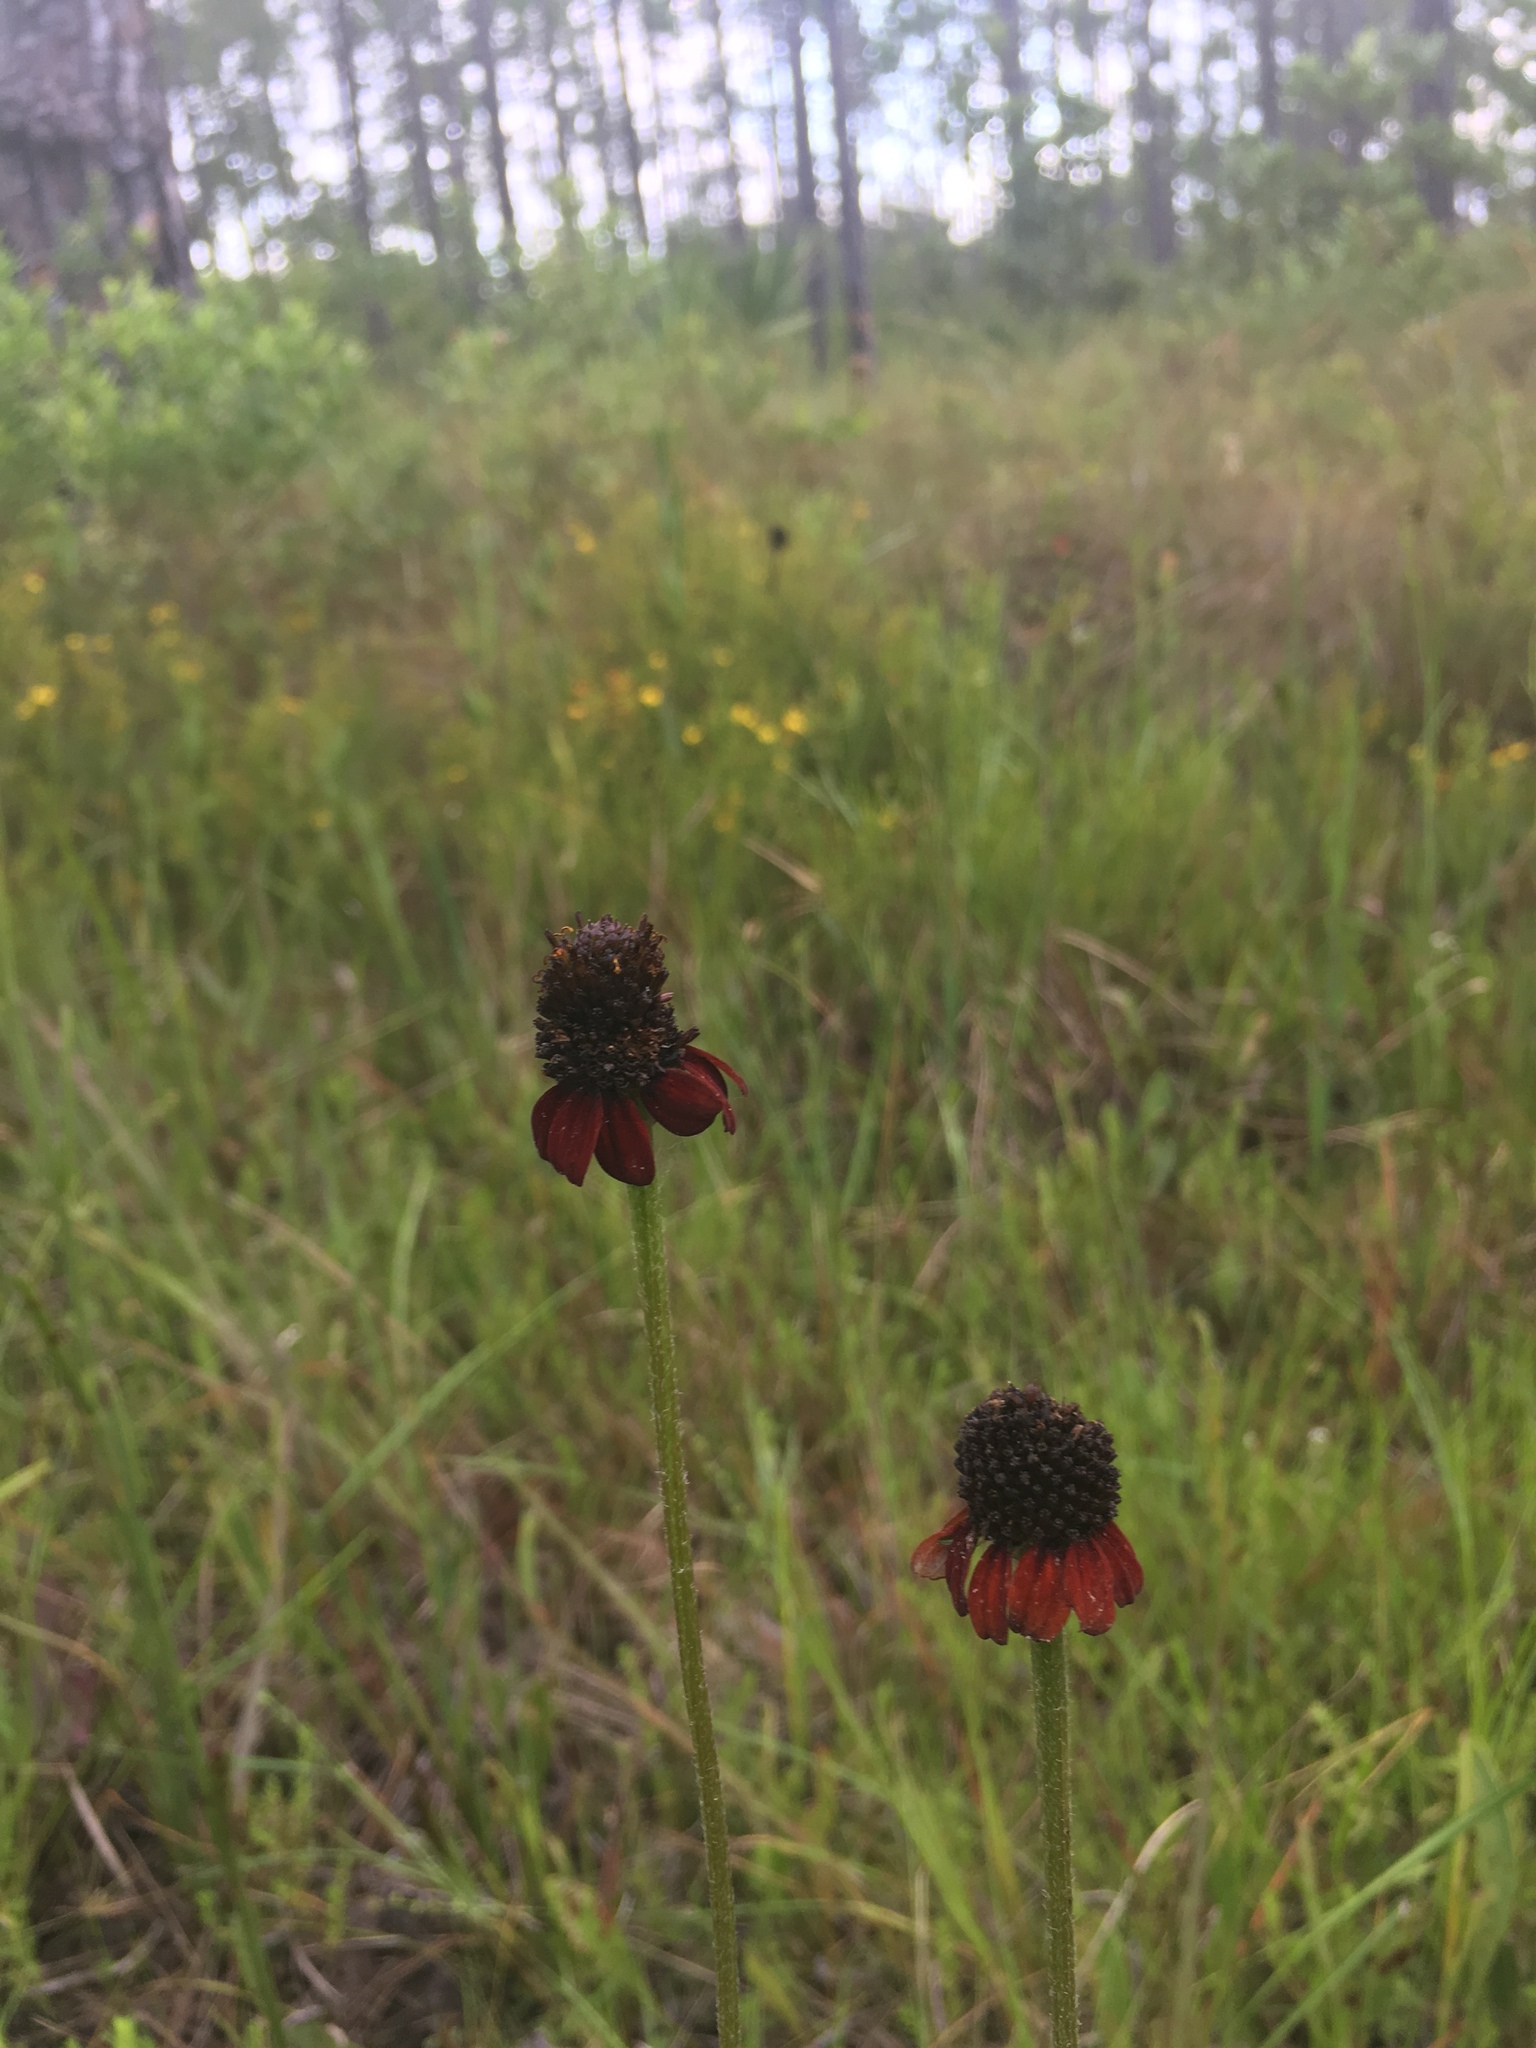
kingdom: Plantae
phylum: Tracheophyta
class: Magnoliopsida
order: Asterales
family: Asteraceae
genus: Rudbeckia
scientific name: Rudbeckia graminifolia
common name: Grass-leaf coneflower
